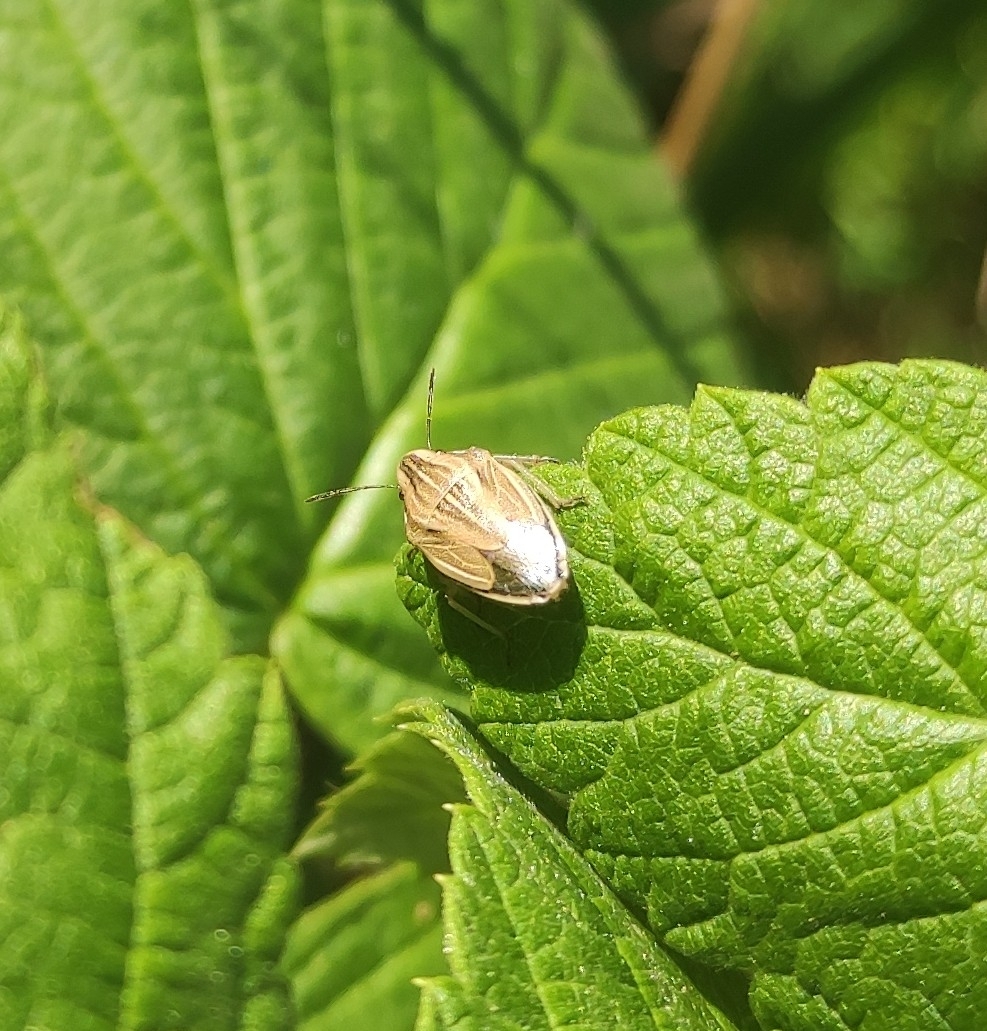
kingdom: Animalia
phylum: Arthropoda
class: Insecta
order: Hemiptera
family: Pentatomidae
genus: Aelia
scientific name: Aelia acuminata
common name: Bishop's mitre
